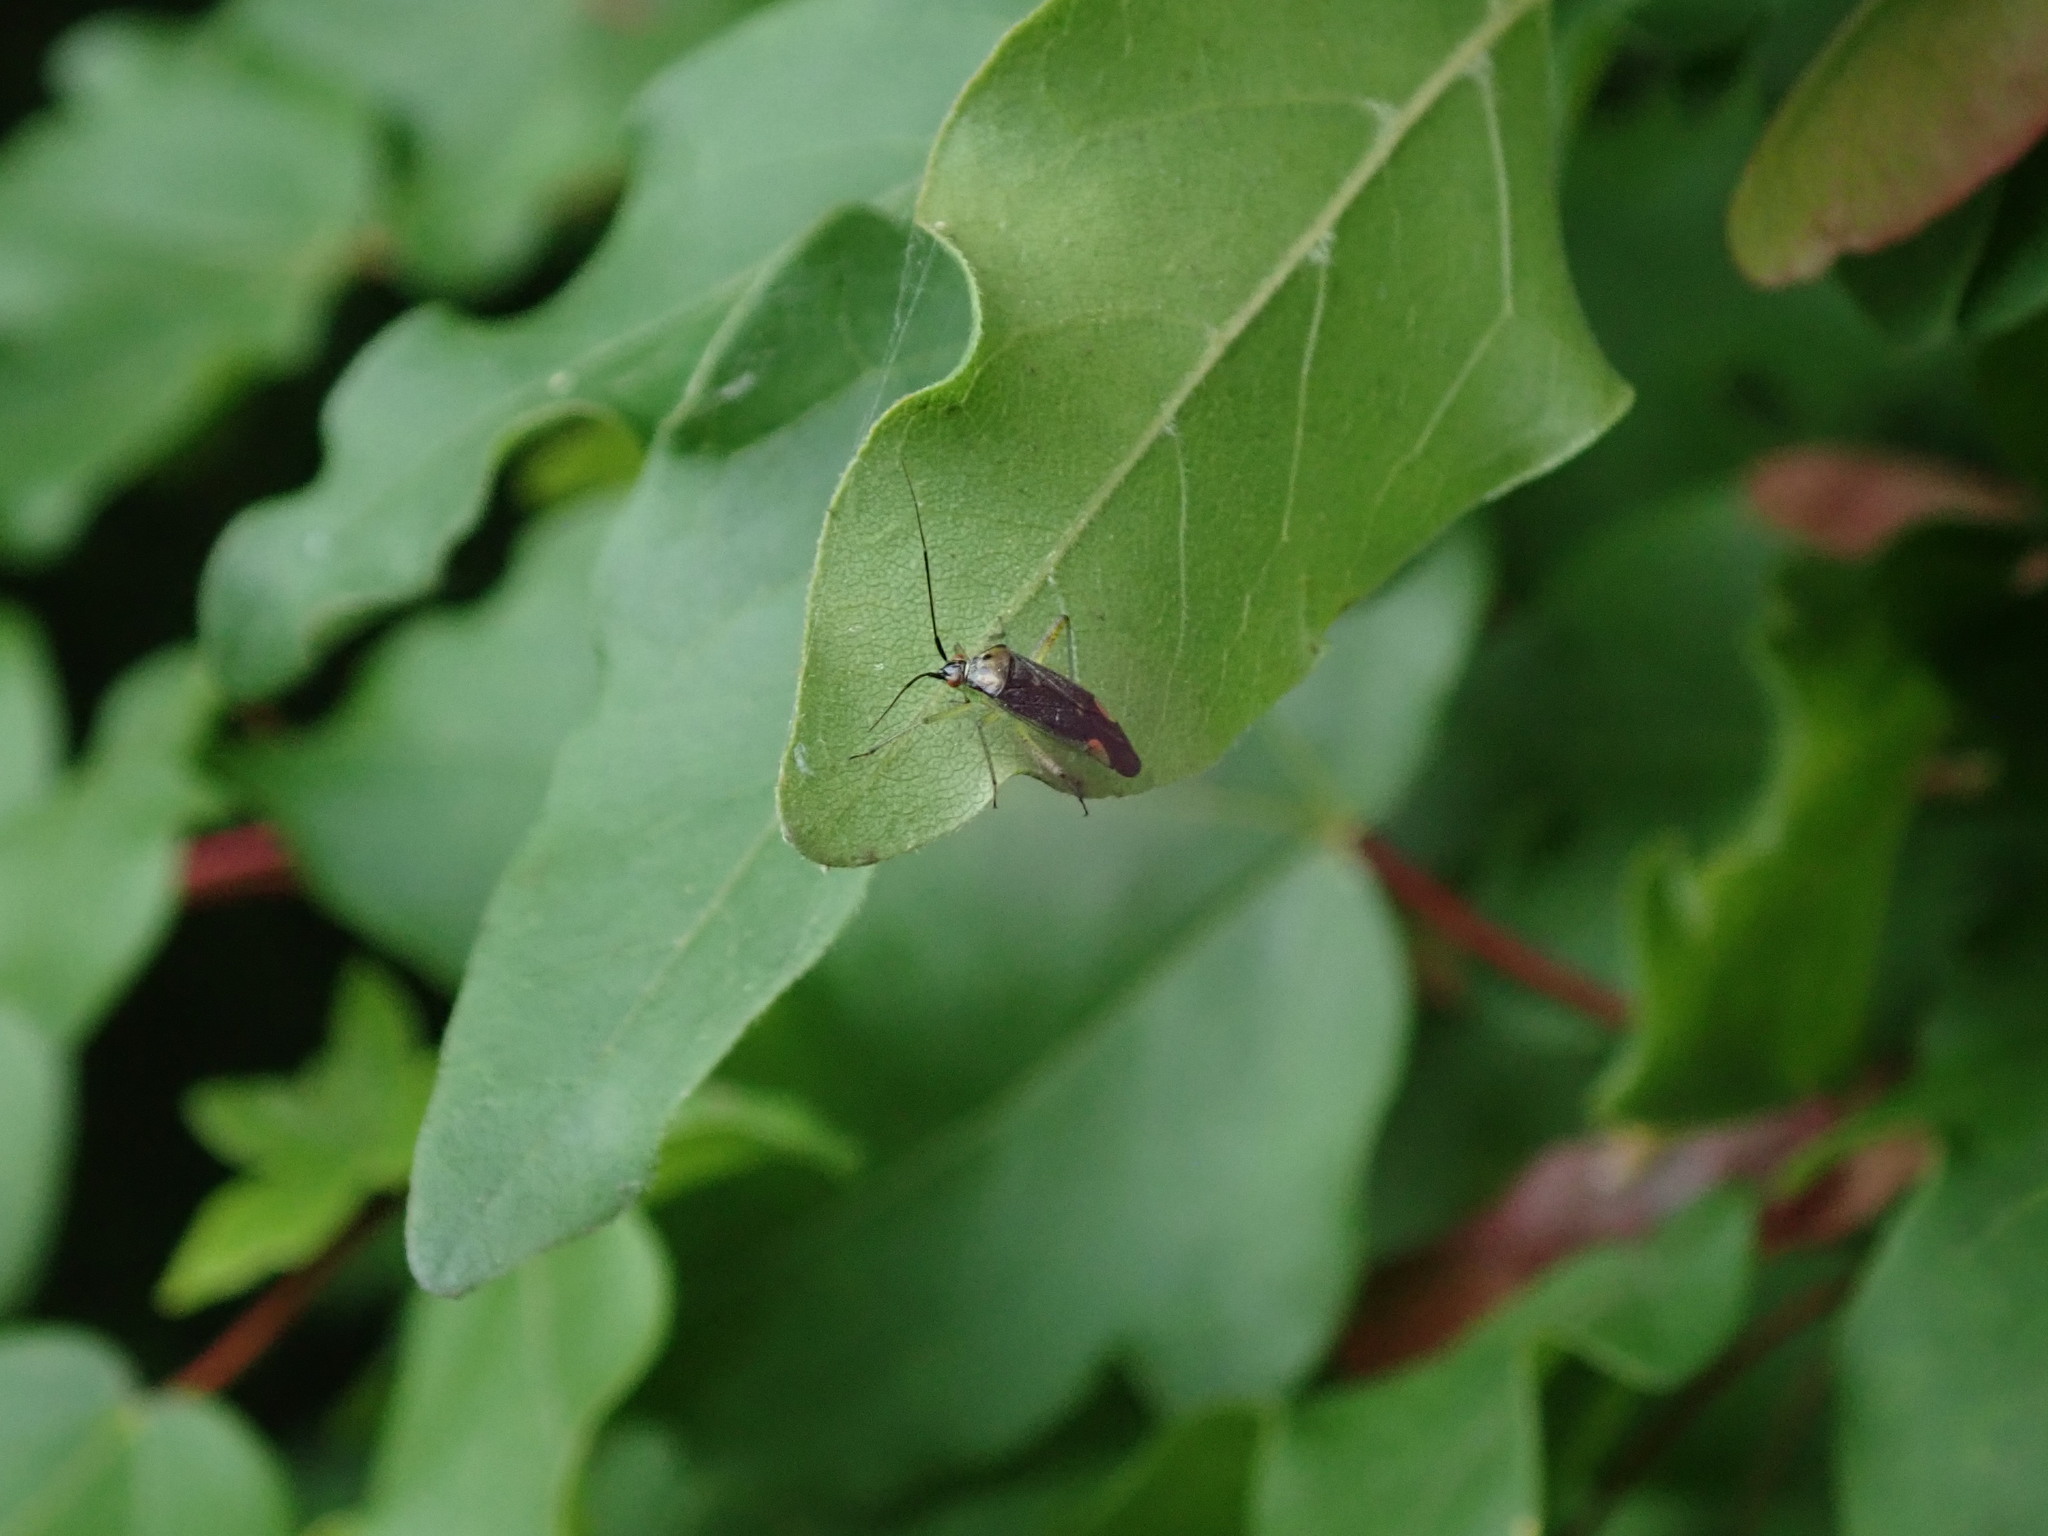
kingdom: Animalia
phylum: Arthropoda
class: Insecta
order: Hemiptera
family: Miridae
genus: Closterotomus
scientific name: Closterotomus trivialis
